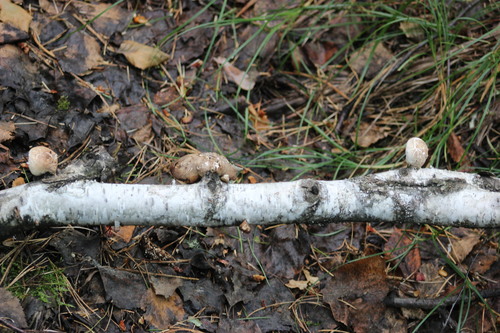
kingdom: Fungi
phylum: Basidiomycota
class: Agaricomycetes
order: Polyporales
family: Fomitopsidaceae
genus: Fomitopsis
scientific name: Fomitopsis betulina
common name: Birch polypore
